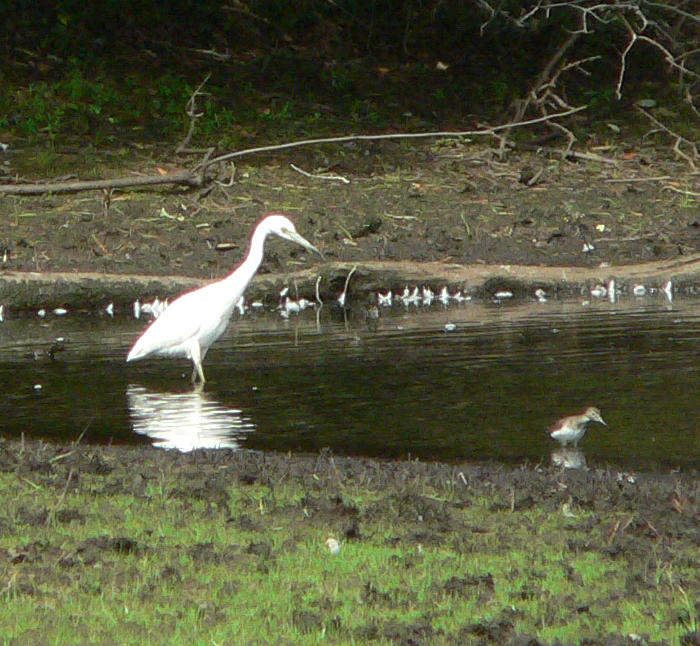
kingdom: Animalia
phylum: Chordata
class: Aves
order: Pelecaniformes
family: Ardeidae
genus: Egretta
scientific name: Egretta caerulea
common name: Little blue heron
